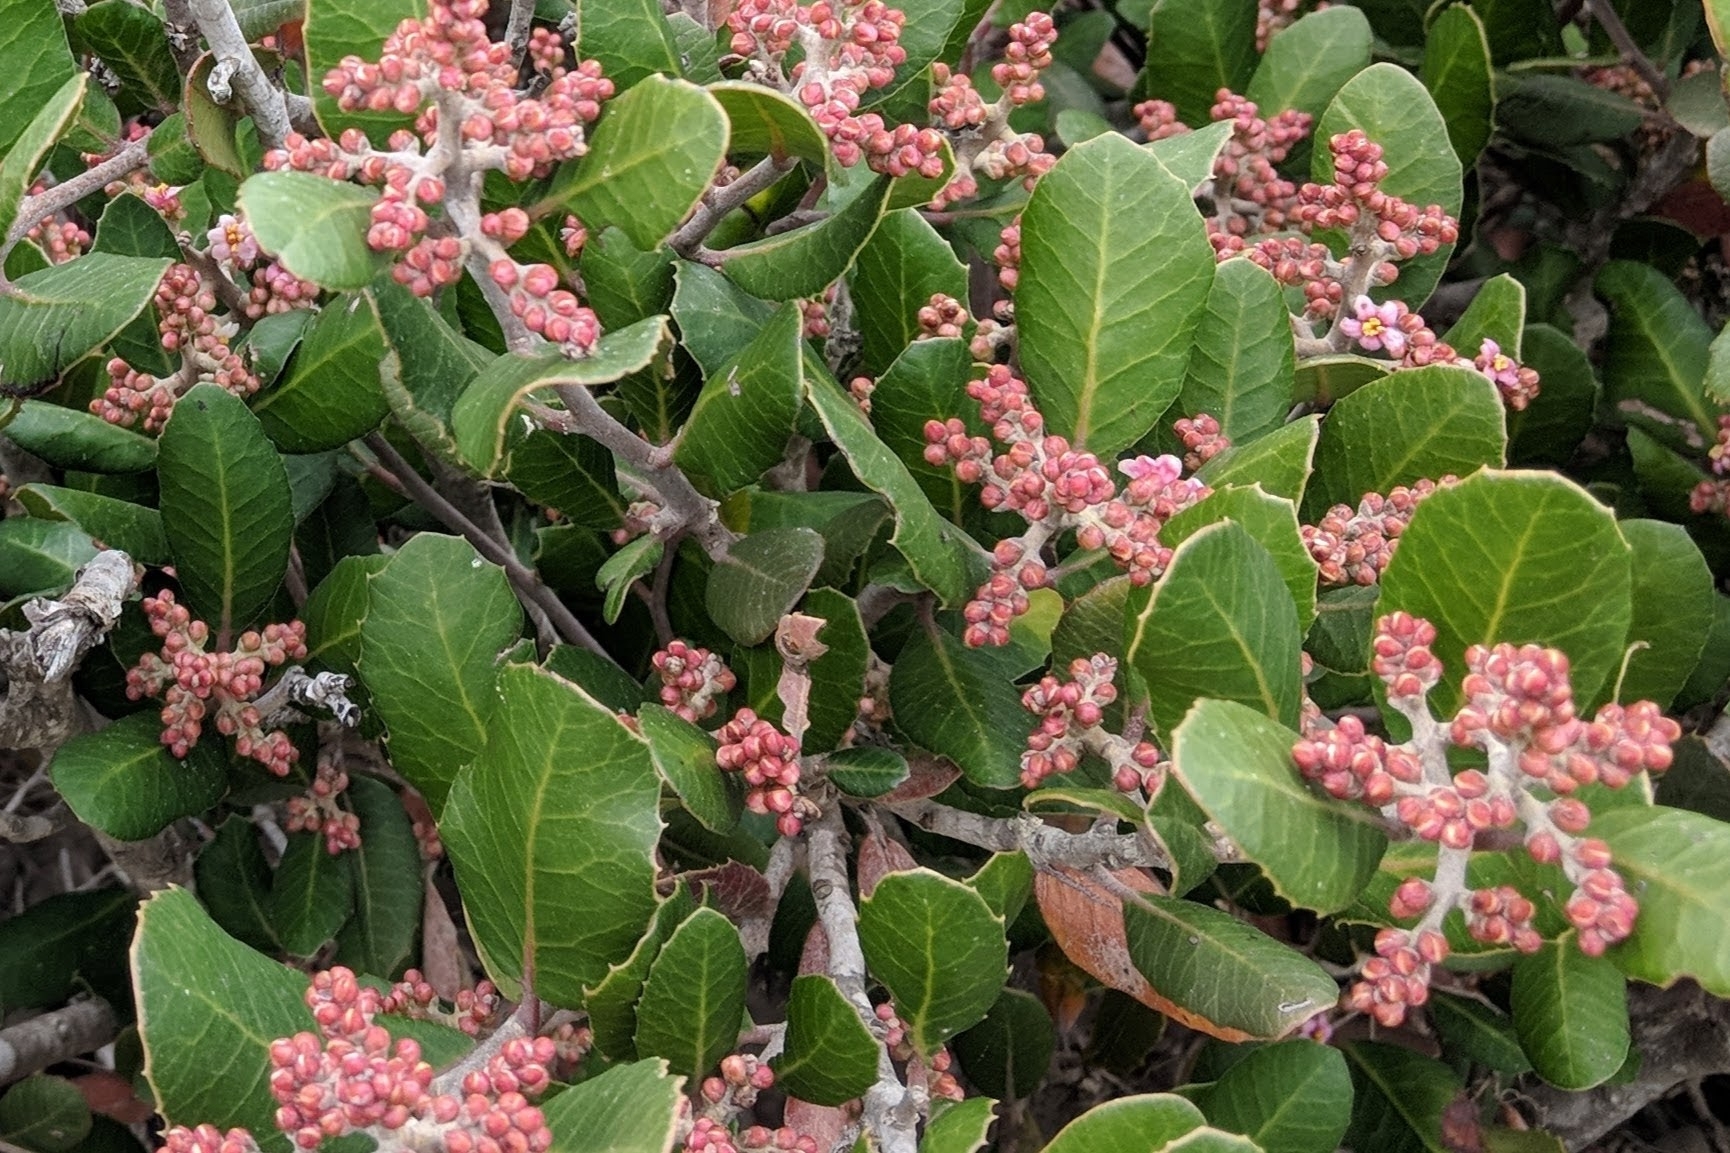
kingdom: Plantae
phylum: Tracheophyta
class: Magnoliopsida
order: Sapindales
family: Anacardiaceae
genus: Rhus
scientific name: Rhus integrifolia
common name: Lemonade sumac
